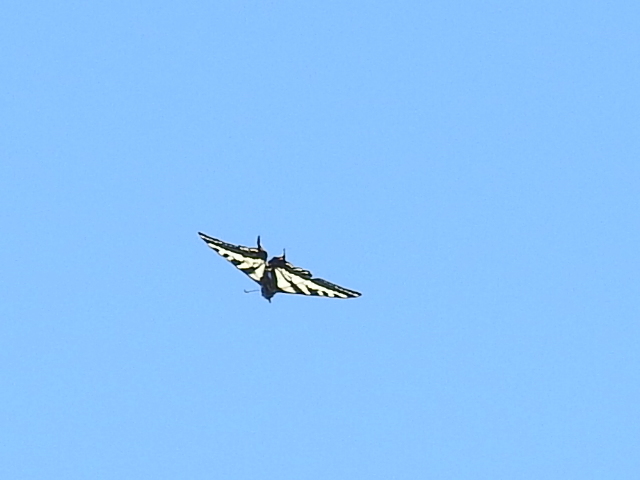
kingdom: Animalia
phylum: Arthropoda
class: Insecta
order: Lepidoptera
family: Papilionidae
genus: Papilio
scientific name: Papilio eurymedon
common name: Pale tiger swallowtail
